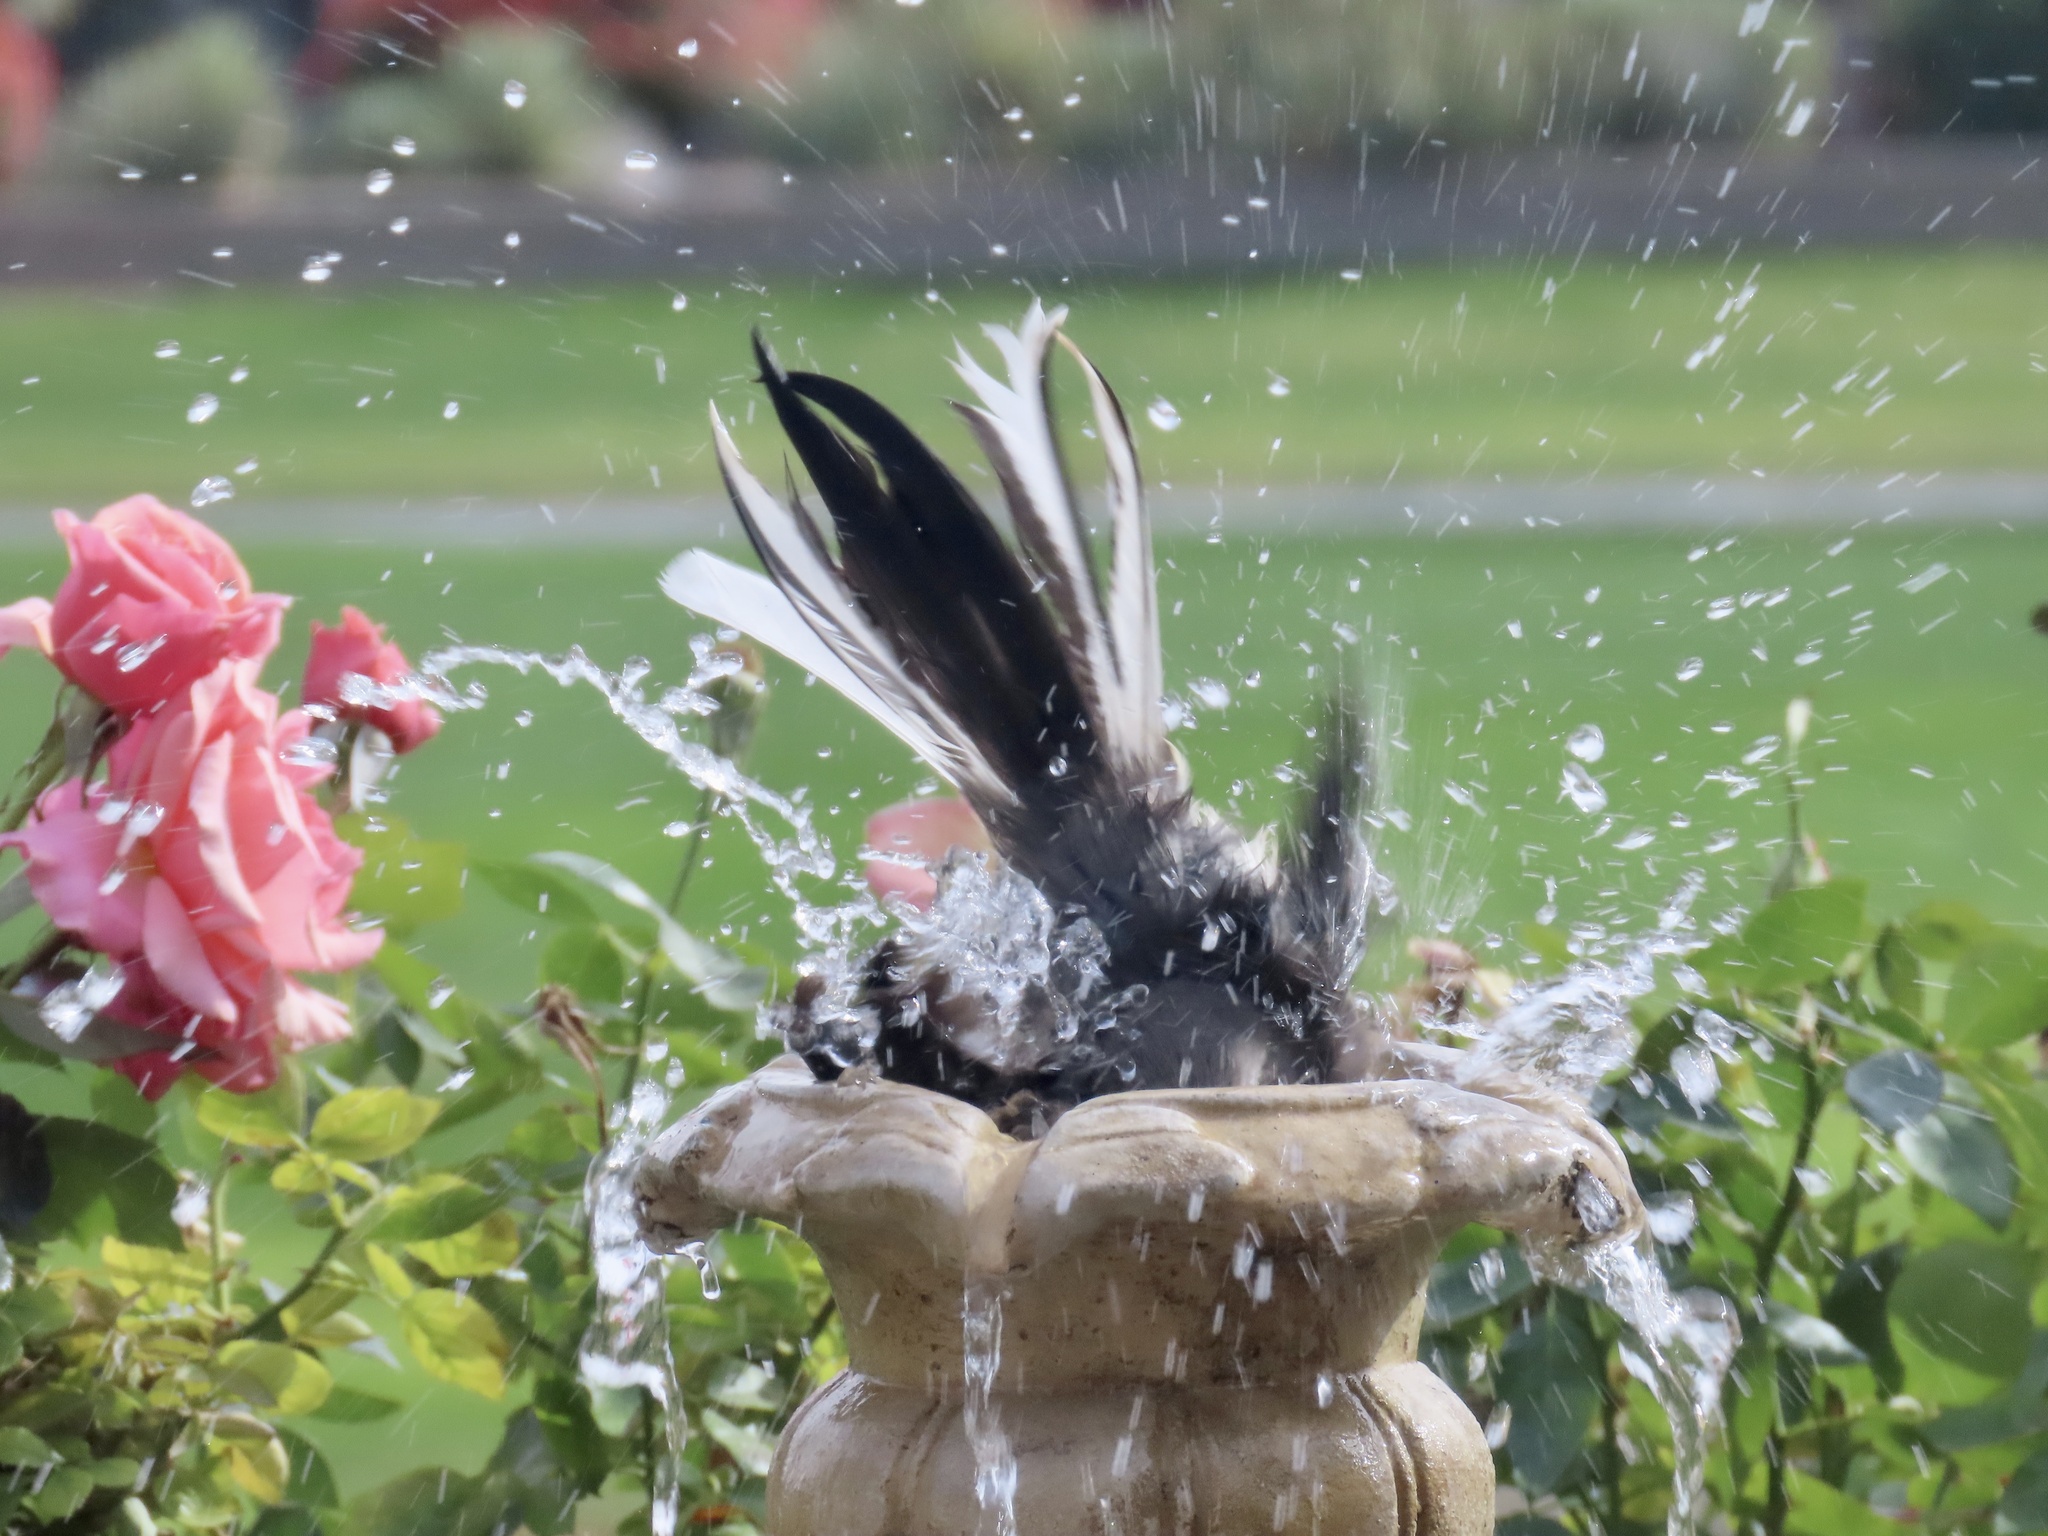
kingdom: Animalia
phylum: Chordata
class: Aves
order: Passeriformes
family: Mimidae
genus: Mimus
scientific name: Mimus polyglottos
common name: Northern mockingbird
